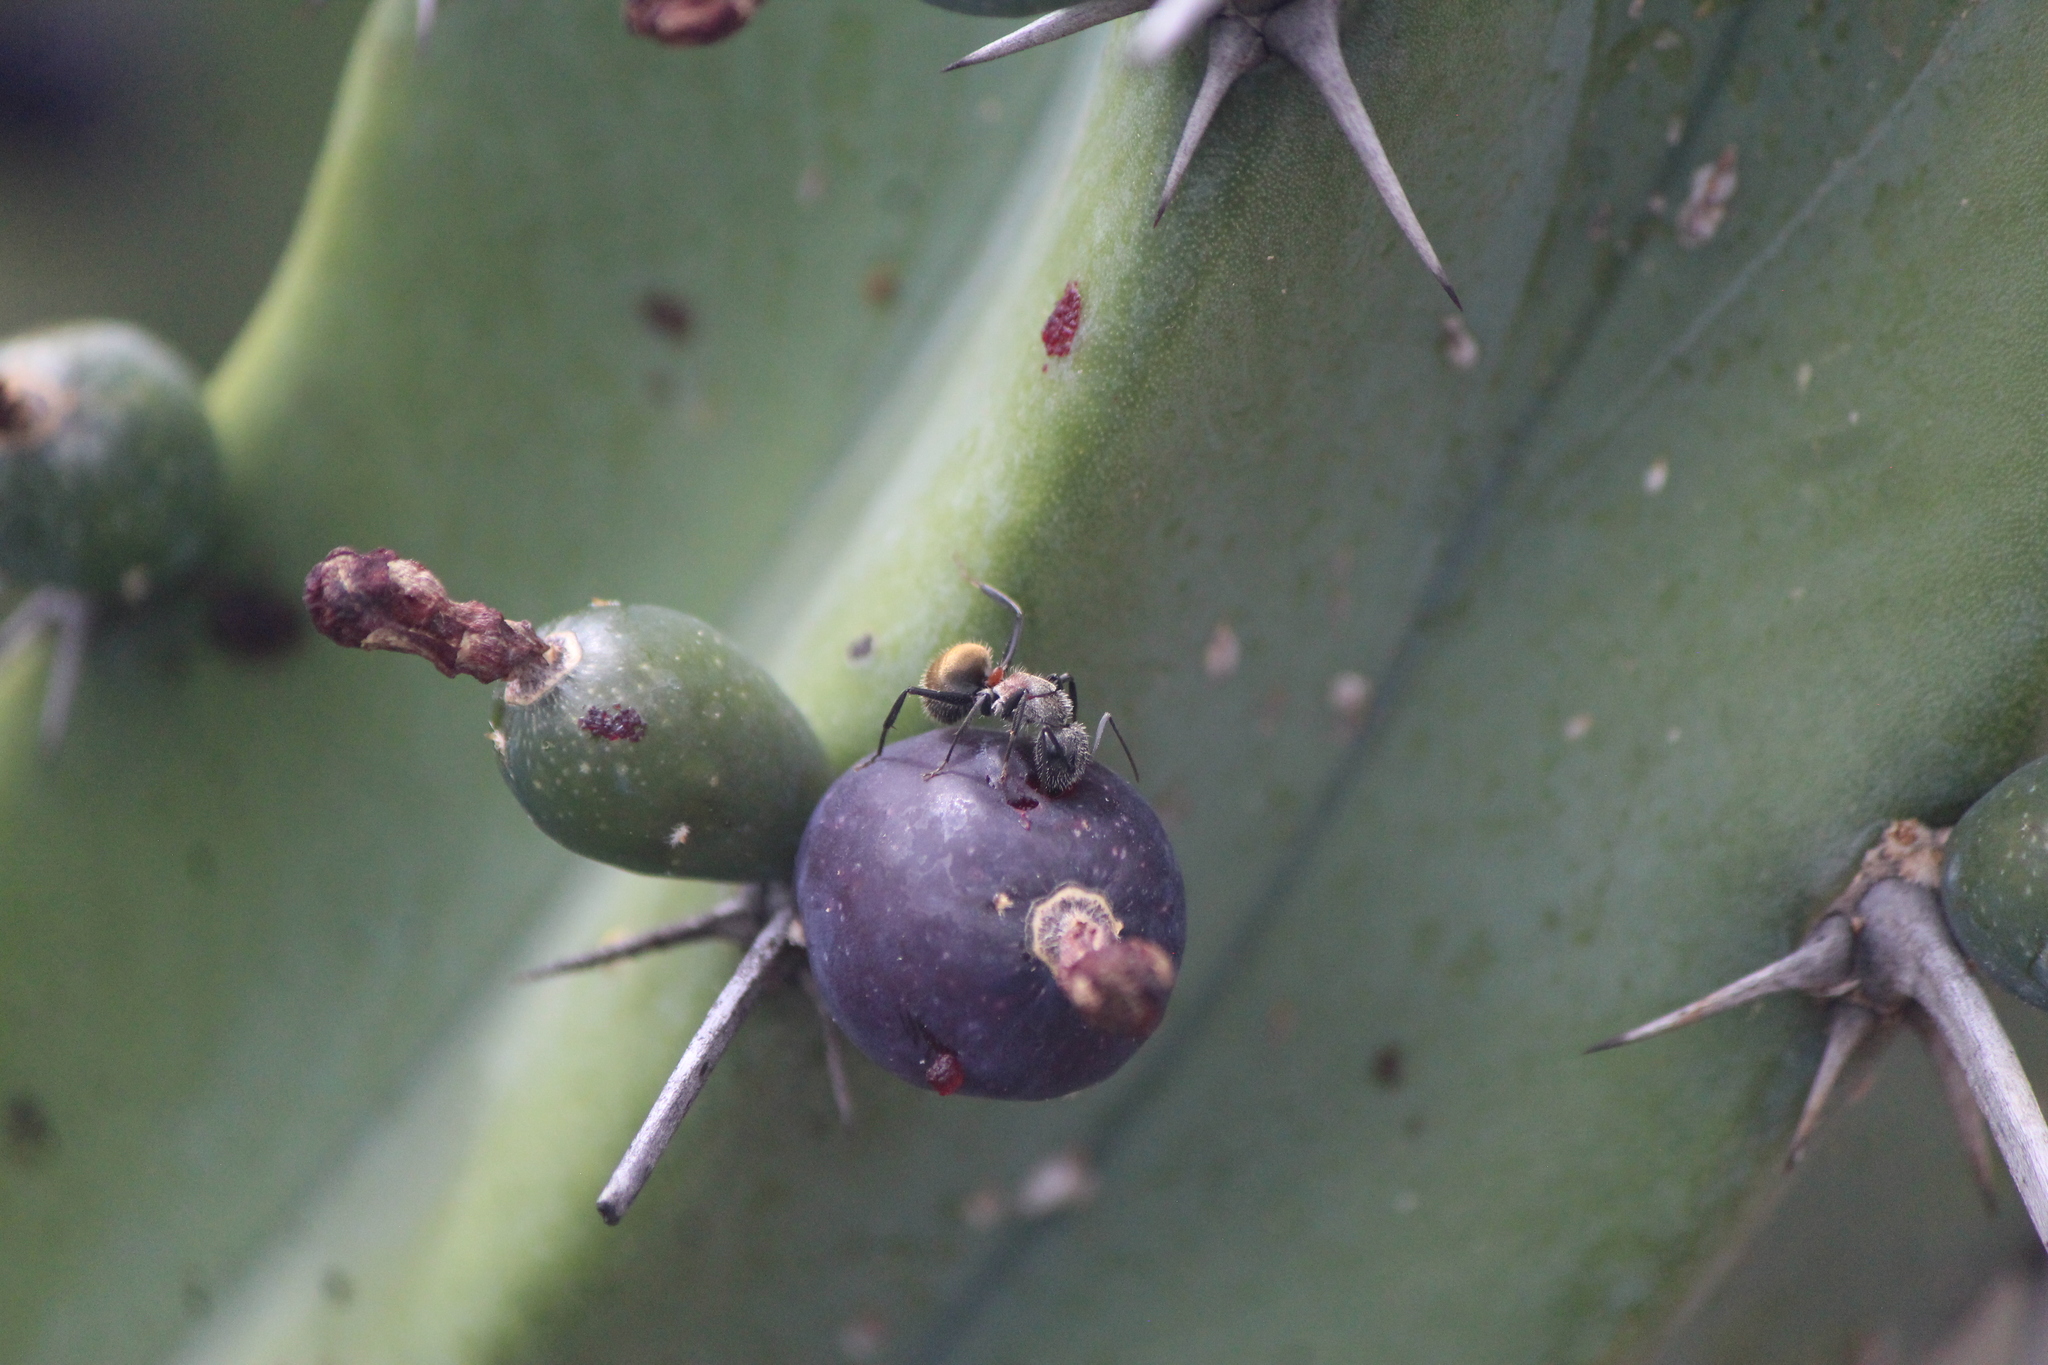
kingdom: Animalia
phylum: Arthropoda
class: Insecta
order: Hymenoptera
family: Formicidae
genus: Camponotus
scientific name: Camponotus pellarius
